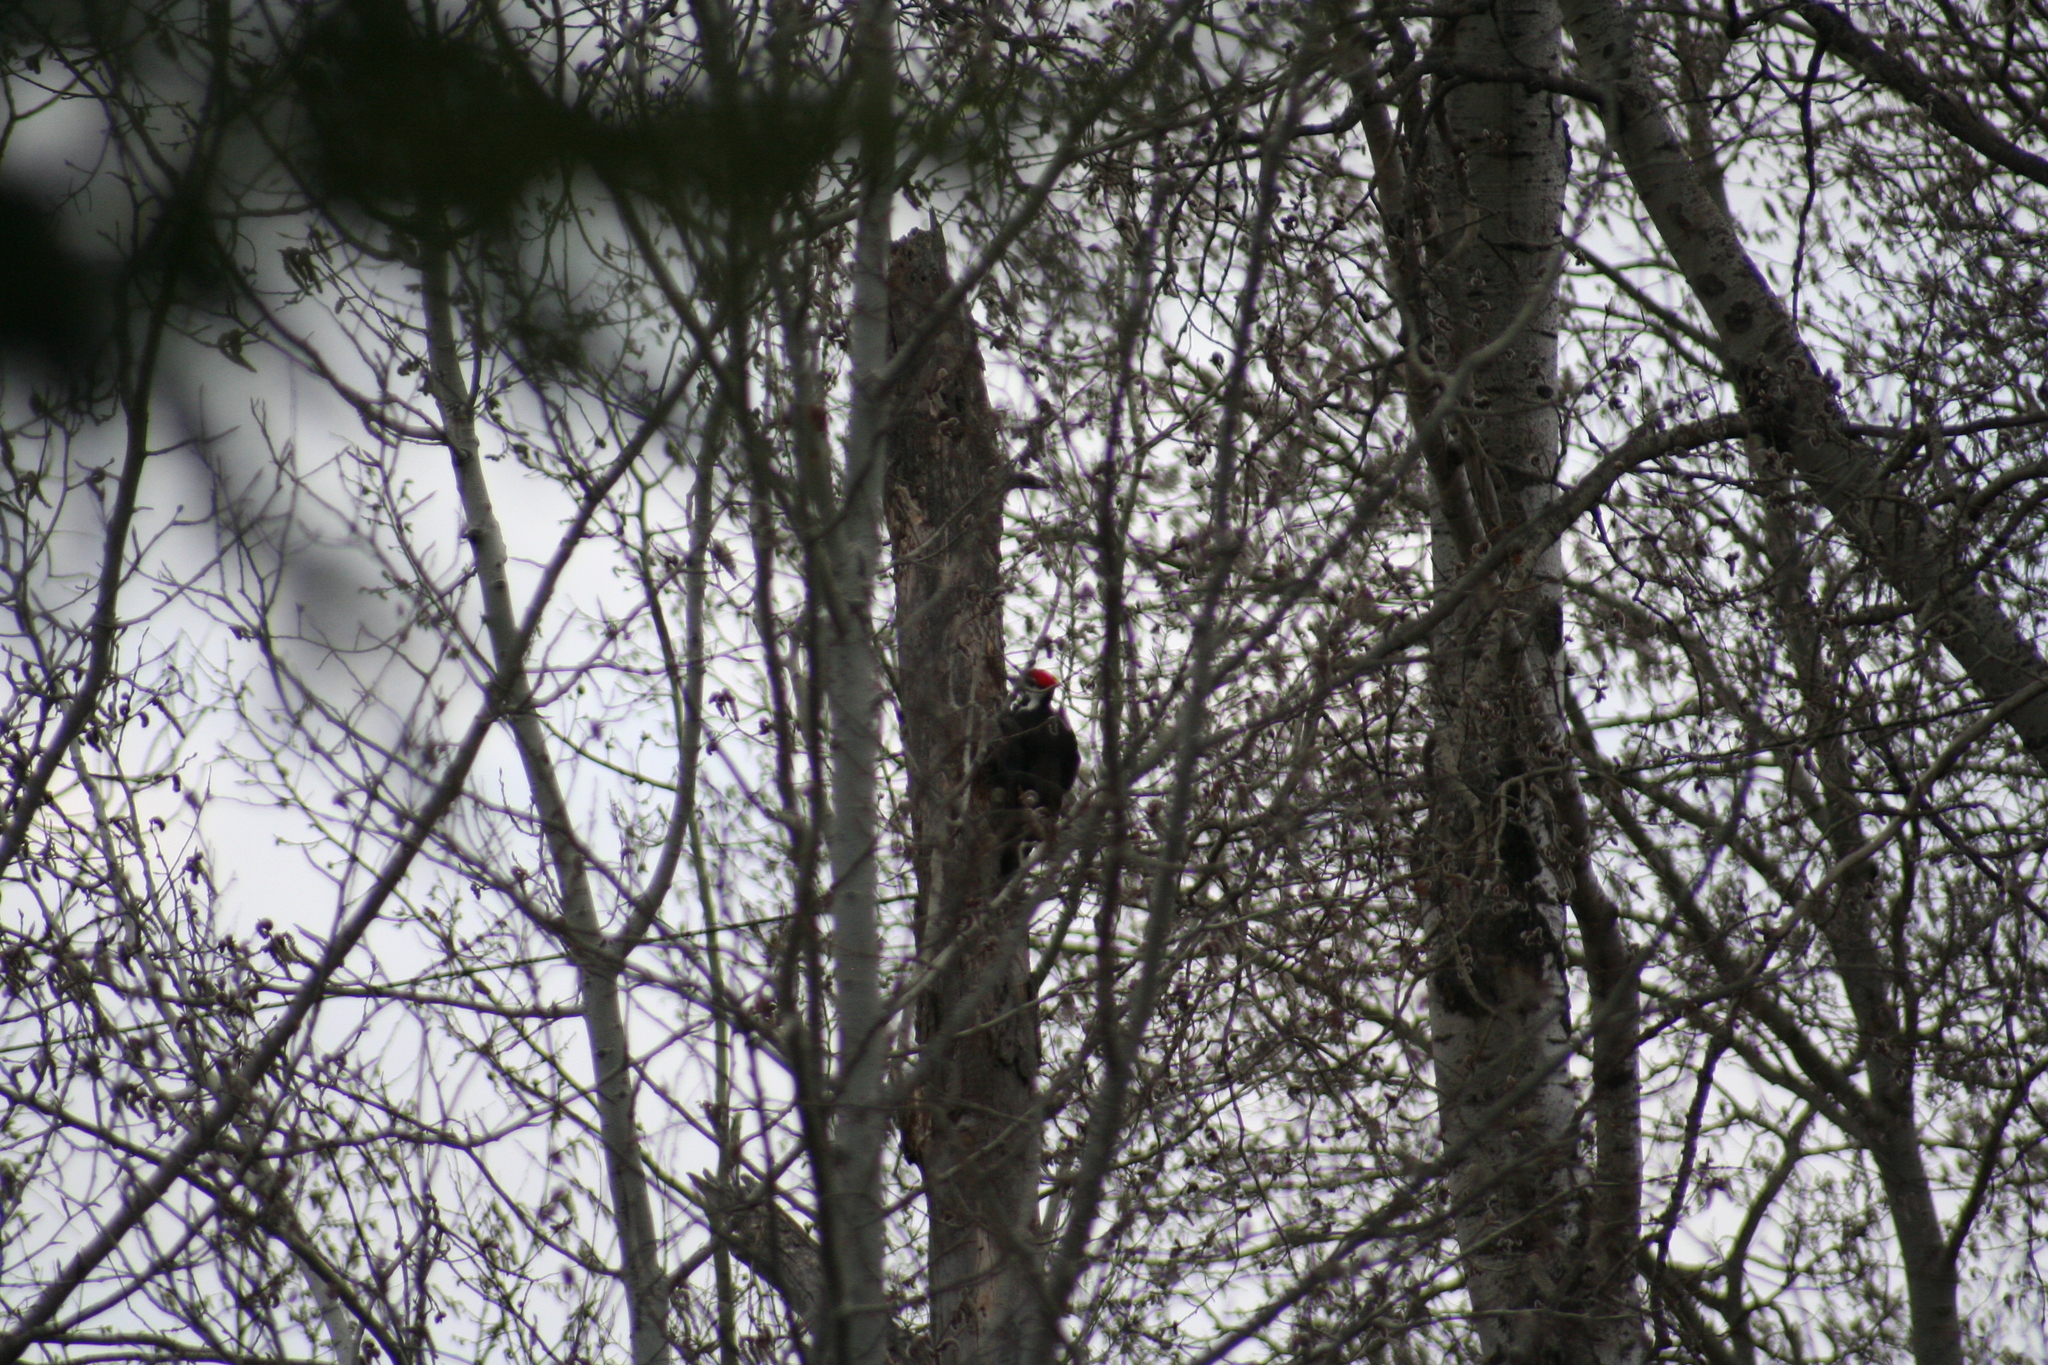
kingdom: Animalia
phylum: Chordata
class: Aves
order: Piciformes
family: Picidae
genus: Dryocopus
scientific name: Dryocopus pileatus
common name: Pileated woodpecker
